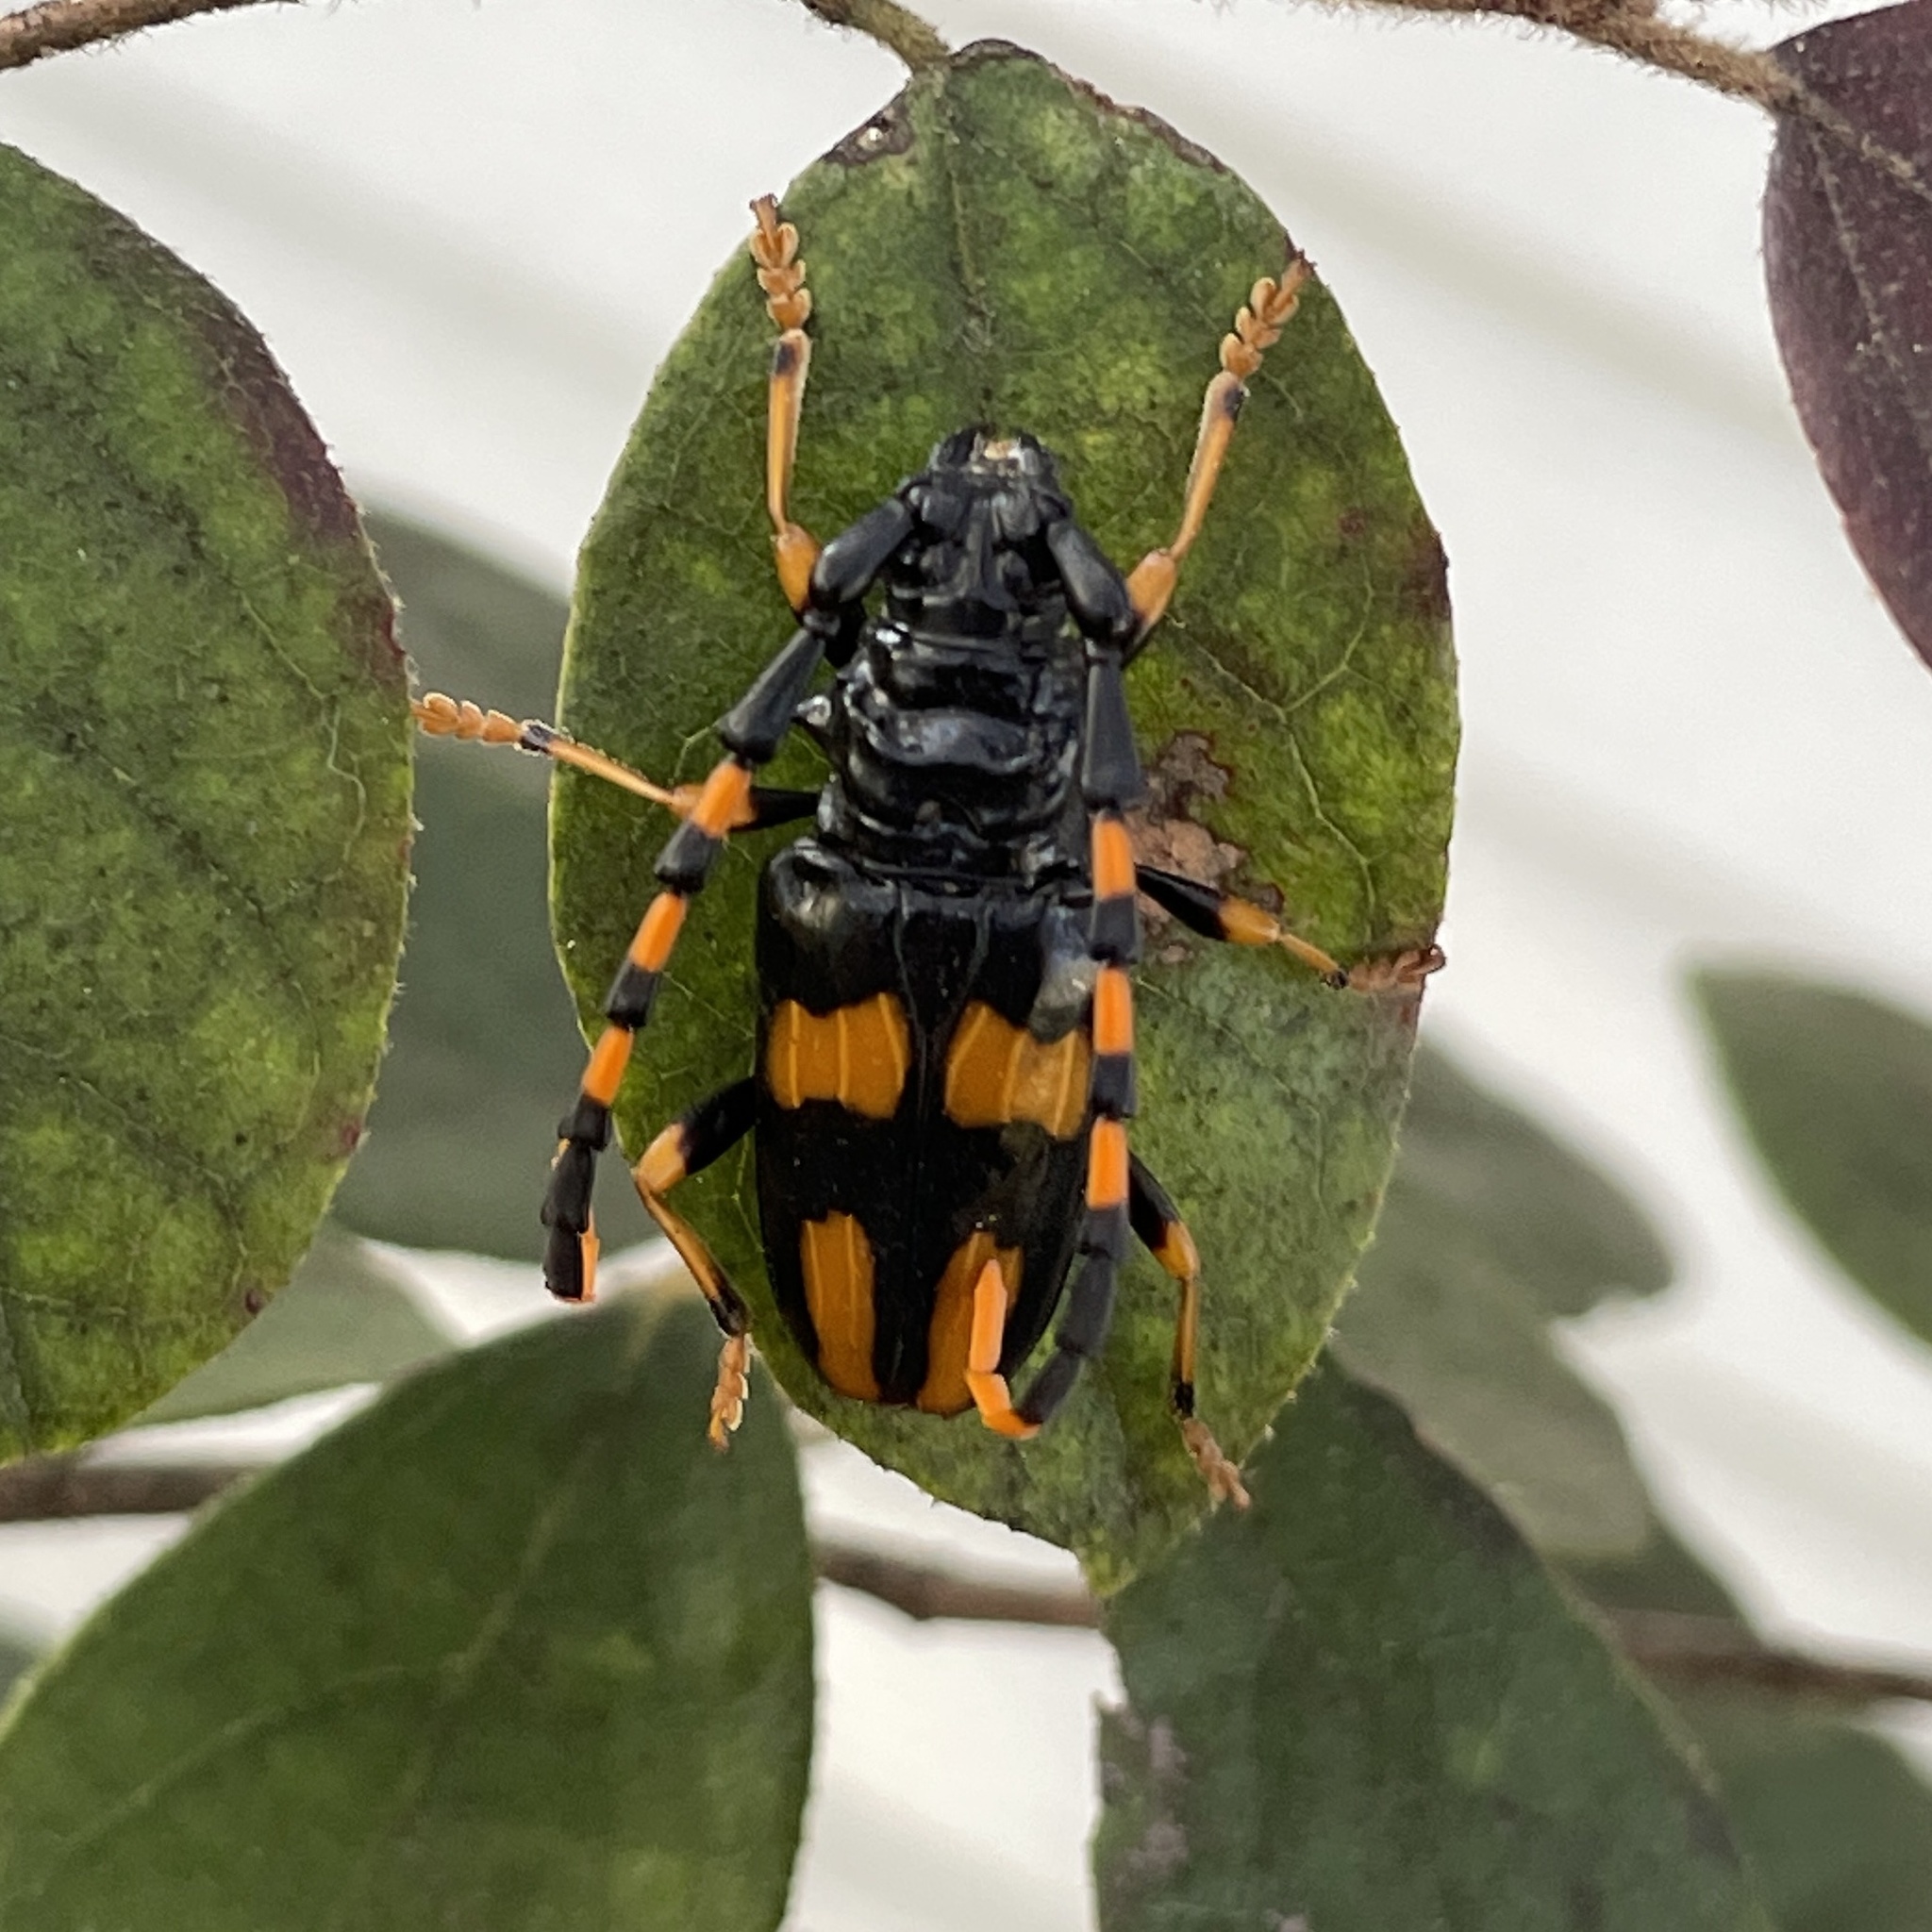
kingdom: Animalia
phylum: Arthropoda
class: Insecta
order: Coleoptera
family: Cerambycidae
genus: Trachyderes
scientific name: Trachyderes mandibularis
